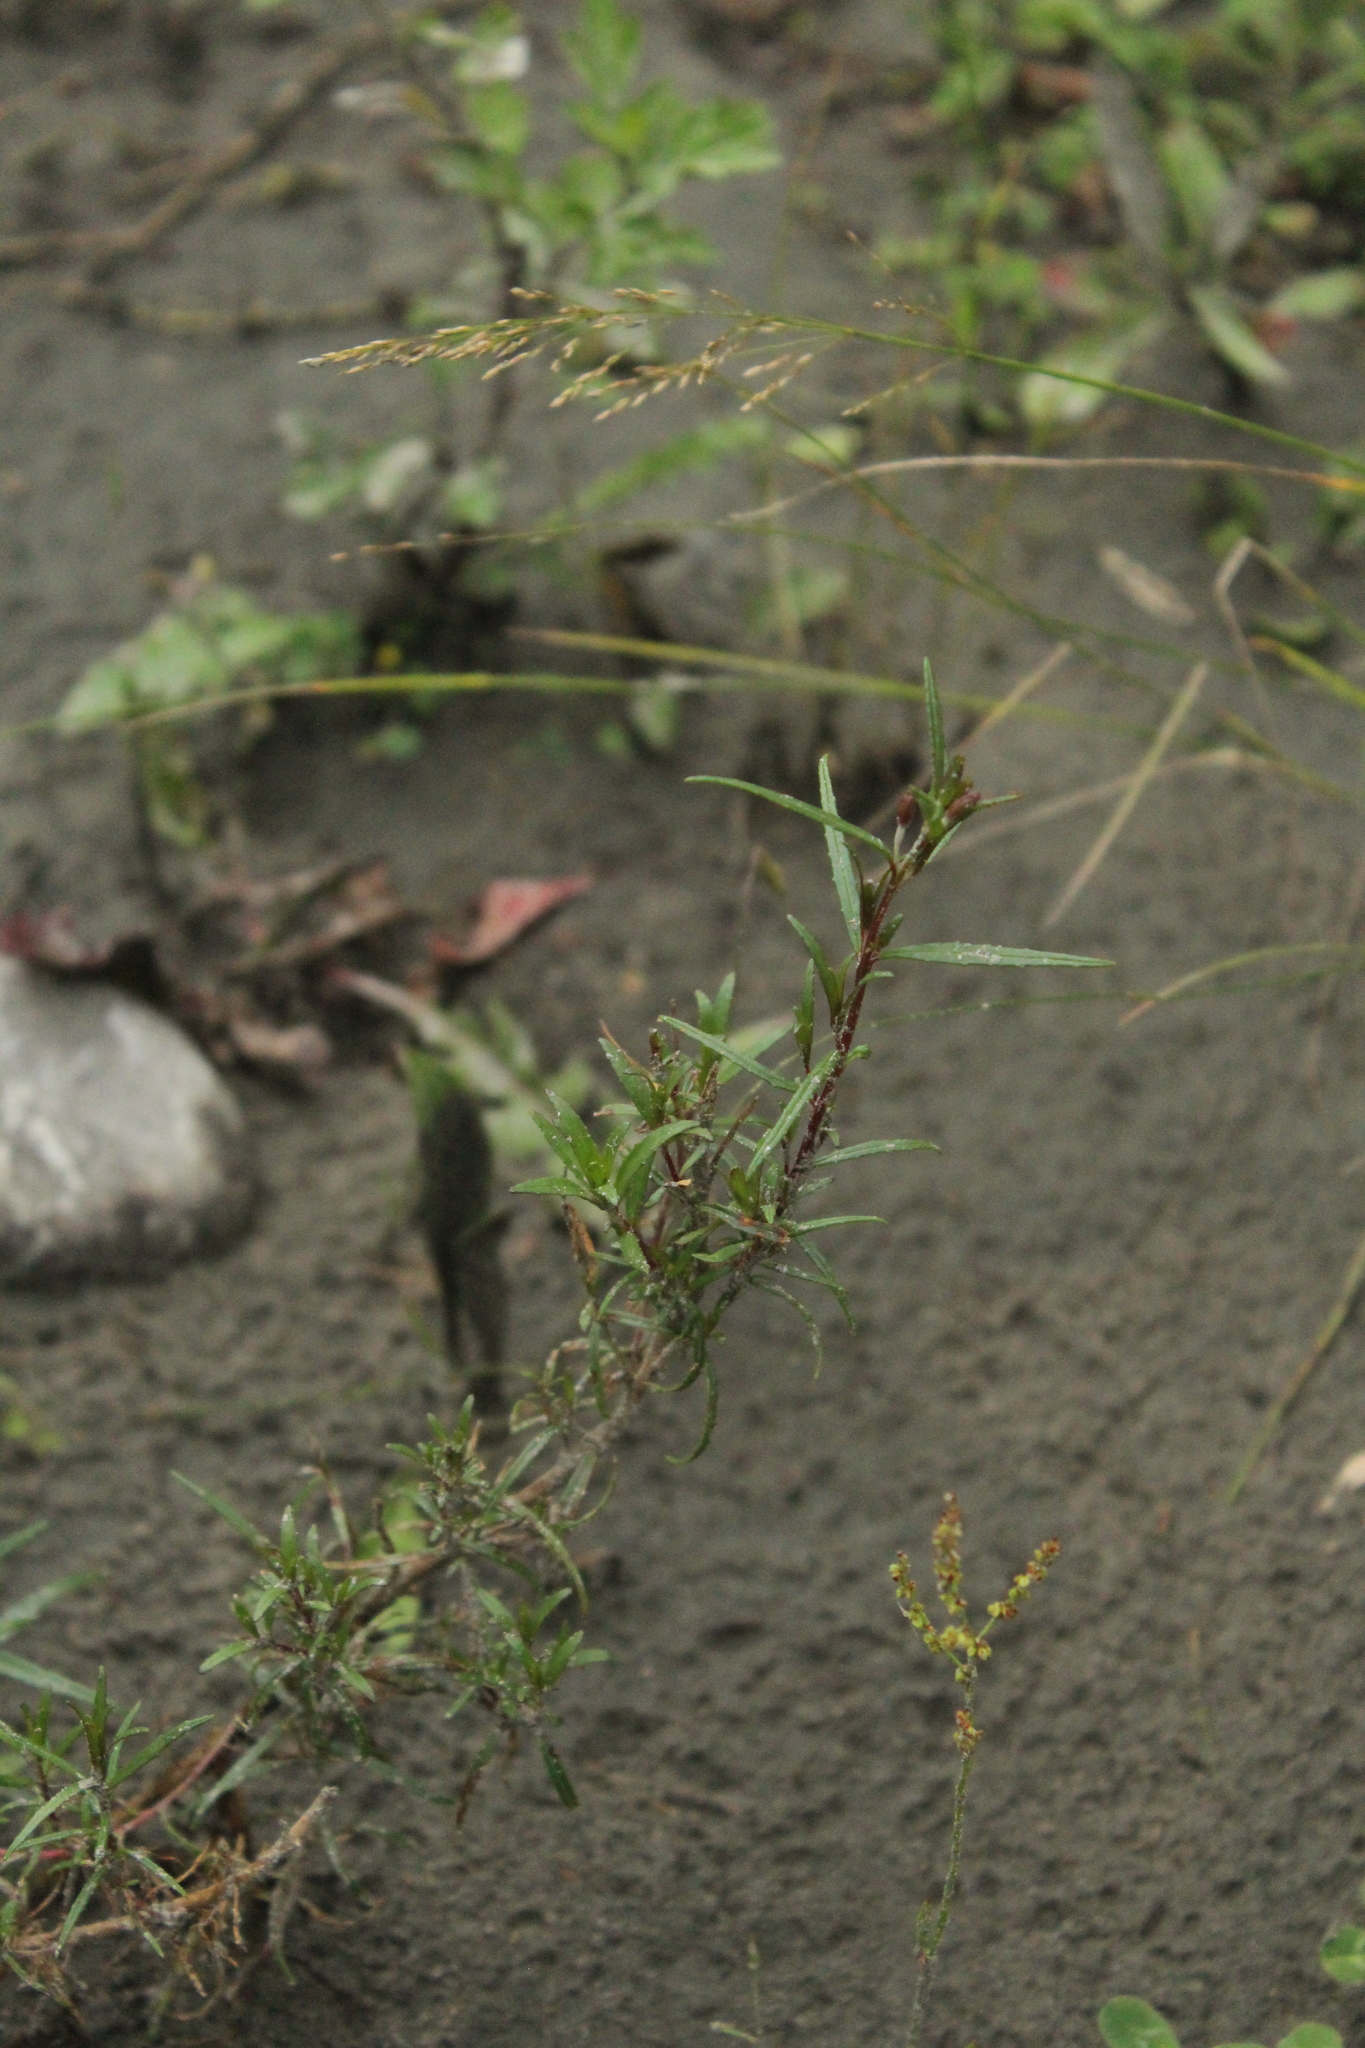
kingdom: Plantae
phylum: Tracheophyta
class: Magnoliopsida
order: Myrtales
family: Onagraceae
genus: Chamaenerion
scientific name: Chamaenerion colchicum
